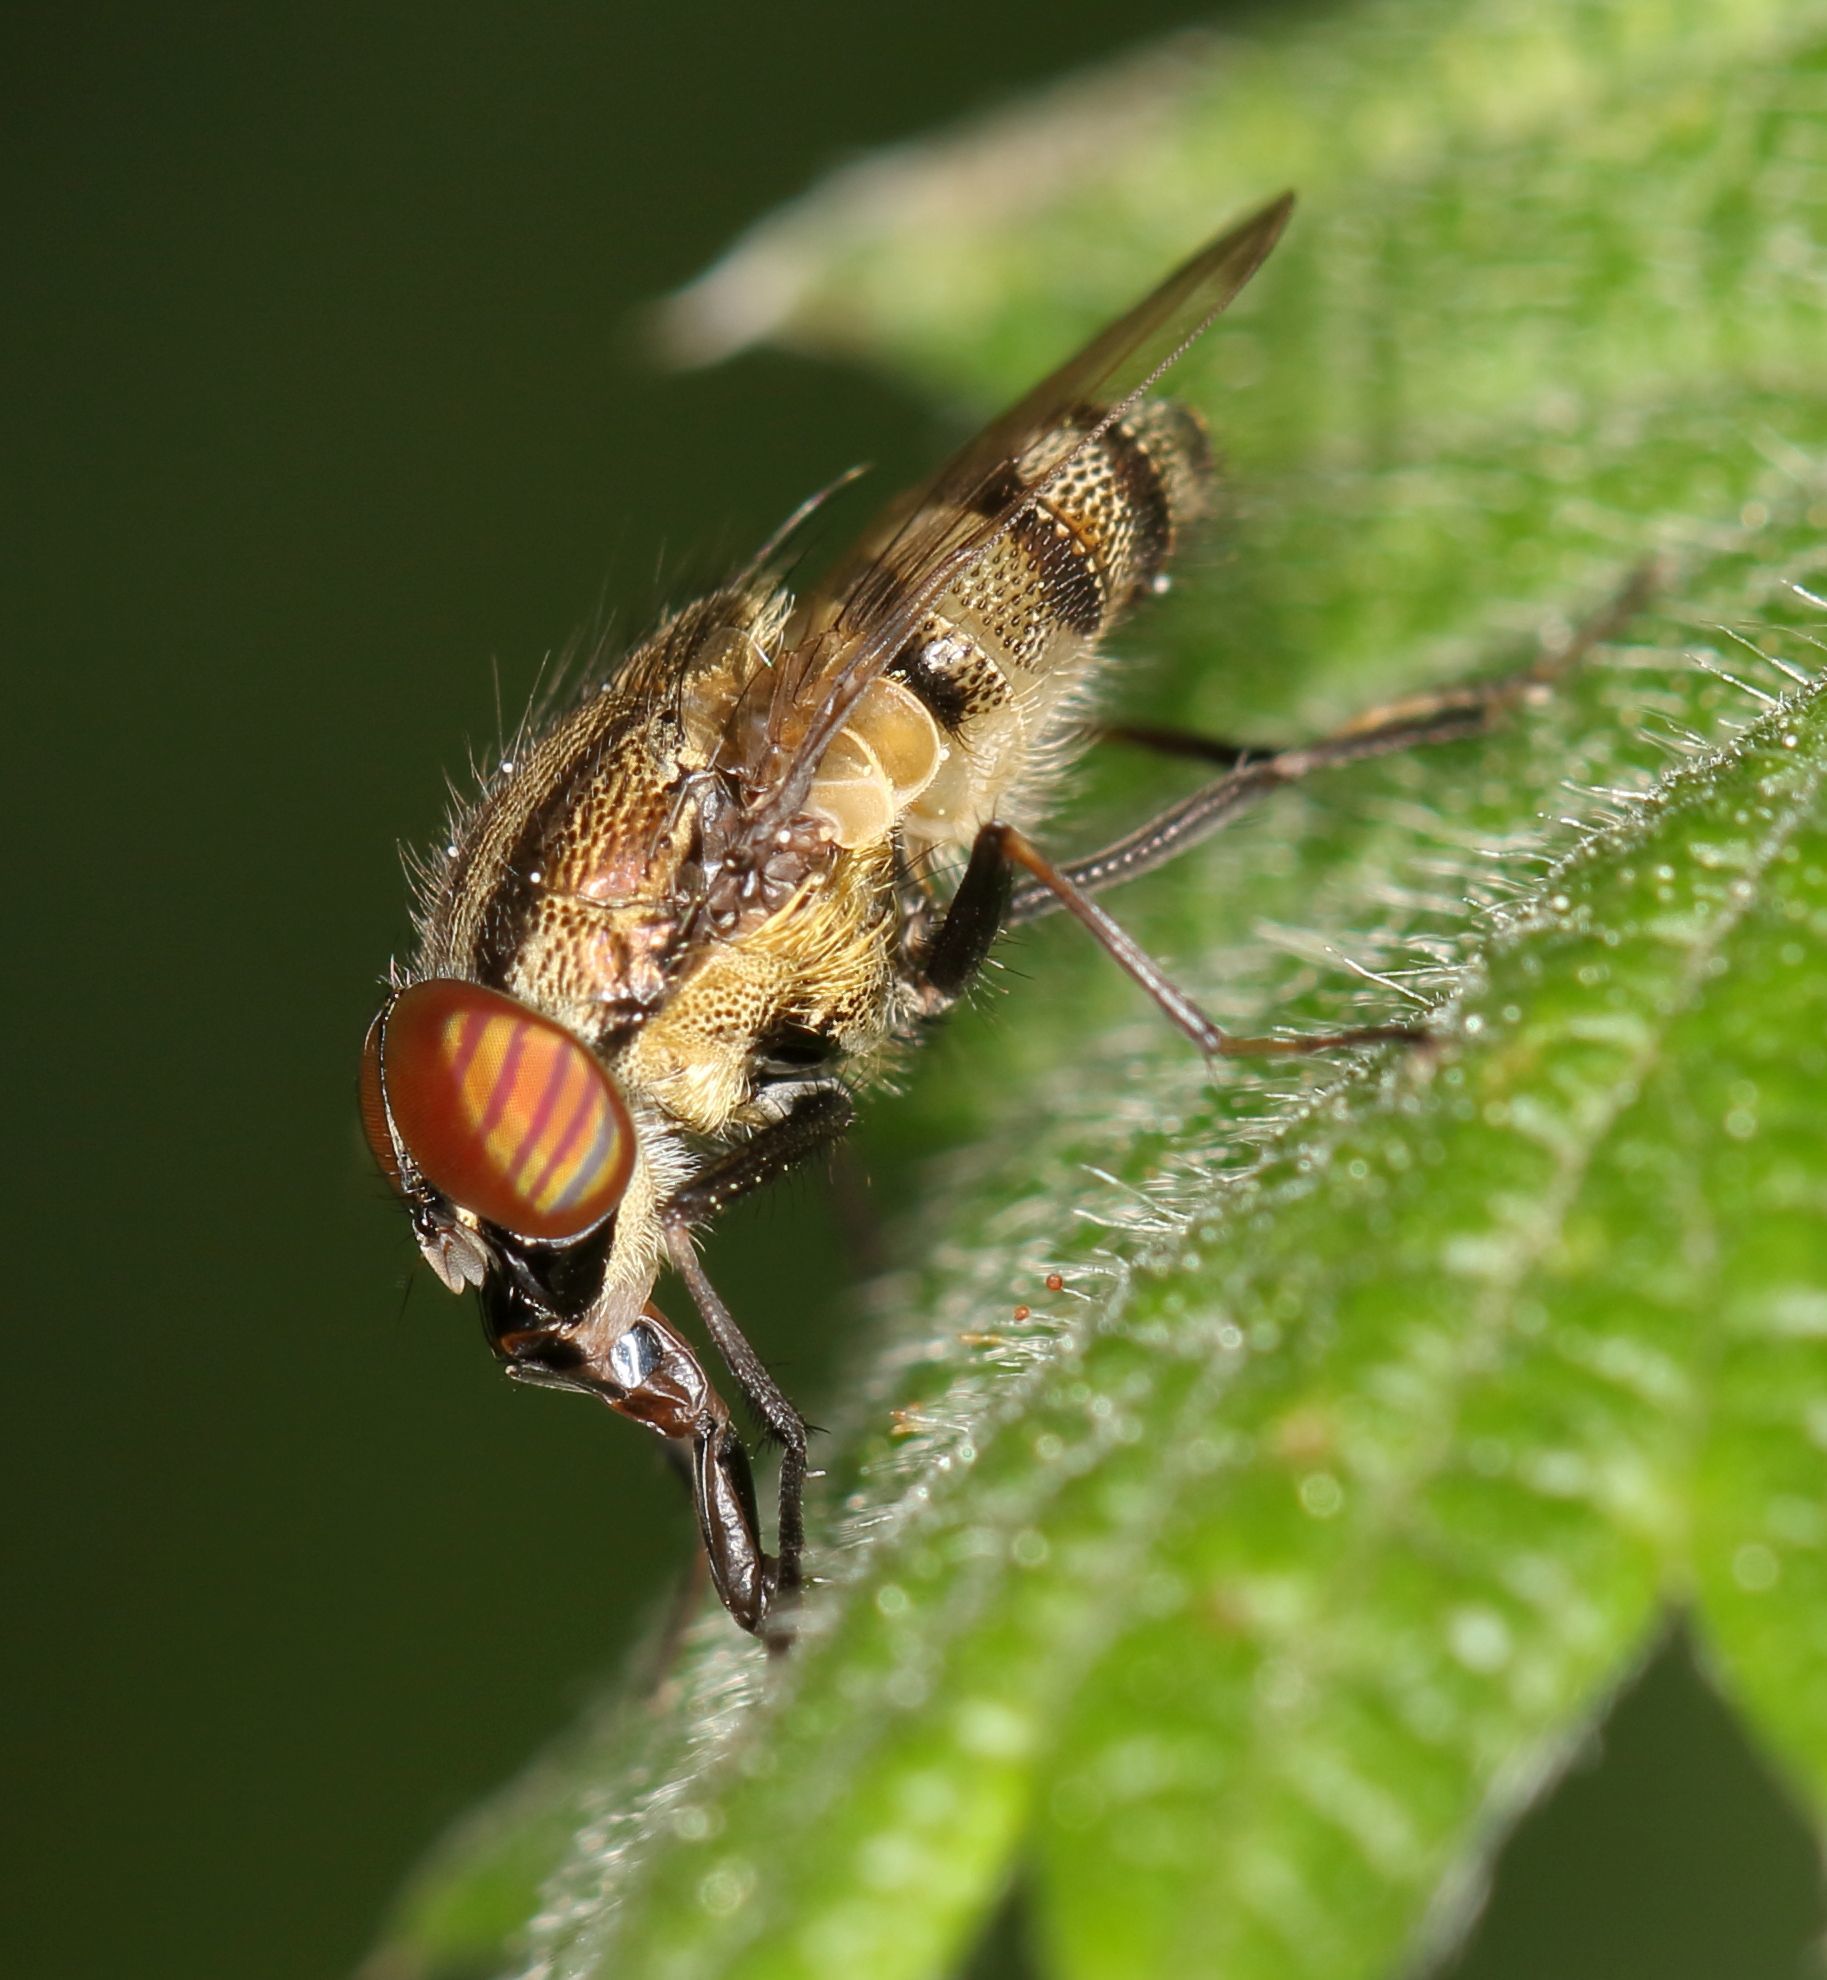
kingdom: Animalia
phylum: Arthropoda
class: Insecta
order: Diptera
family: Calliphoridae
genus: Stomorhina
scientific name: Stomorhina cribrata
